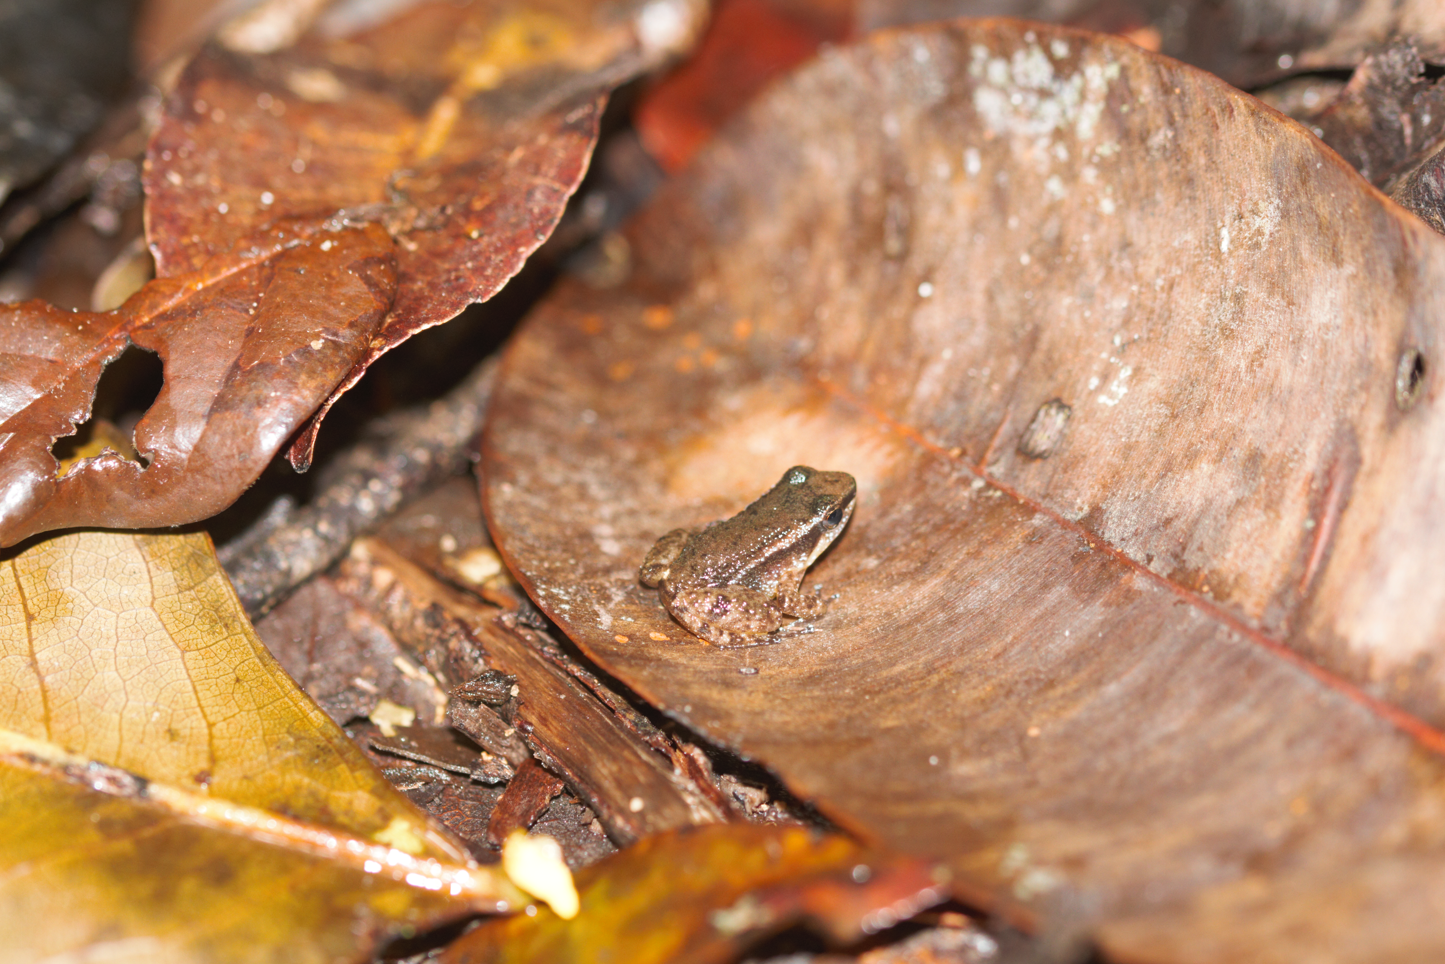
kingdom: Animalia
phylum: Chordata
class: Amphibia
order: Anura
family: Aromobatidae
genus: Anomaloglossus
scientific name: Anomaloglossus baeobatrachus
